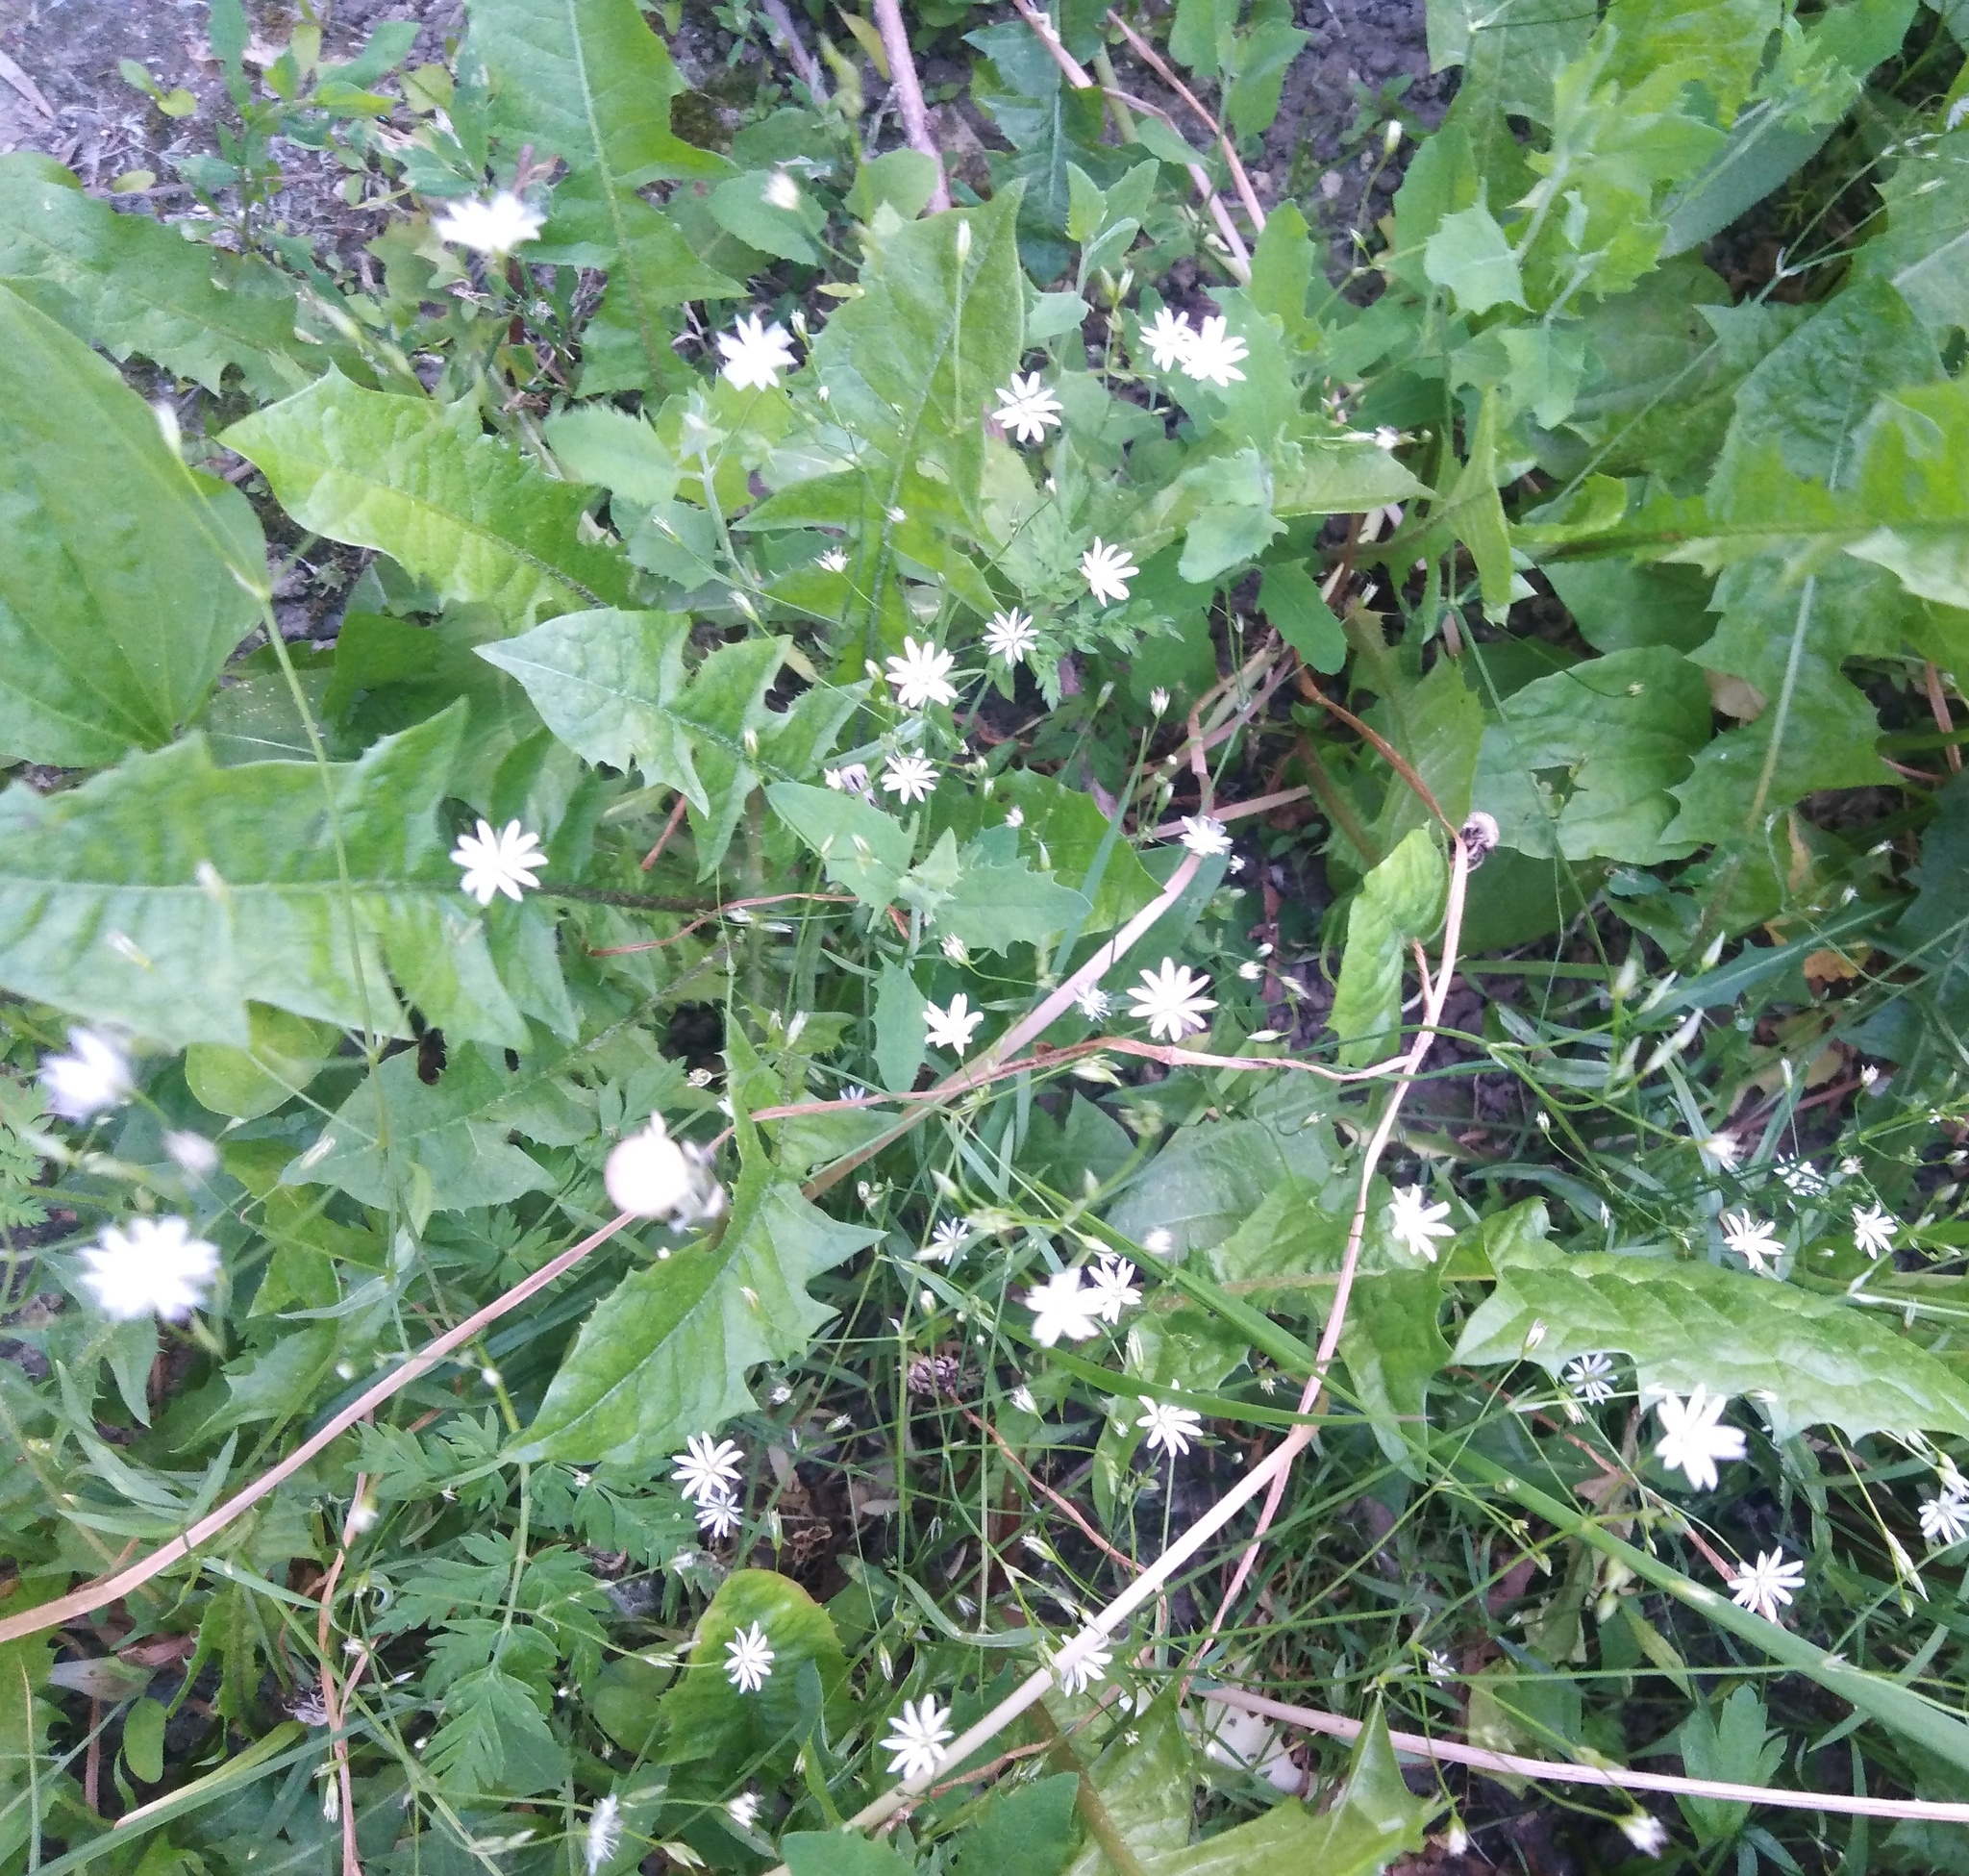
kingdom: Plantae
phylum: Tracheophyta
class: Magnoliopsida
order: Caryophyllales
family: Caryophyllaceae
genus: Stellaria
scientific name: Stellaria graminea
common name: Grass-like starwort
